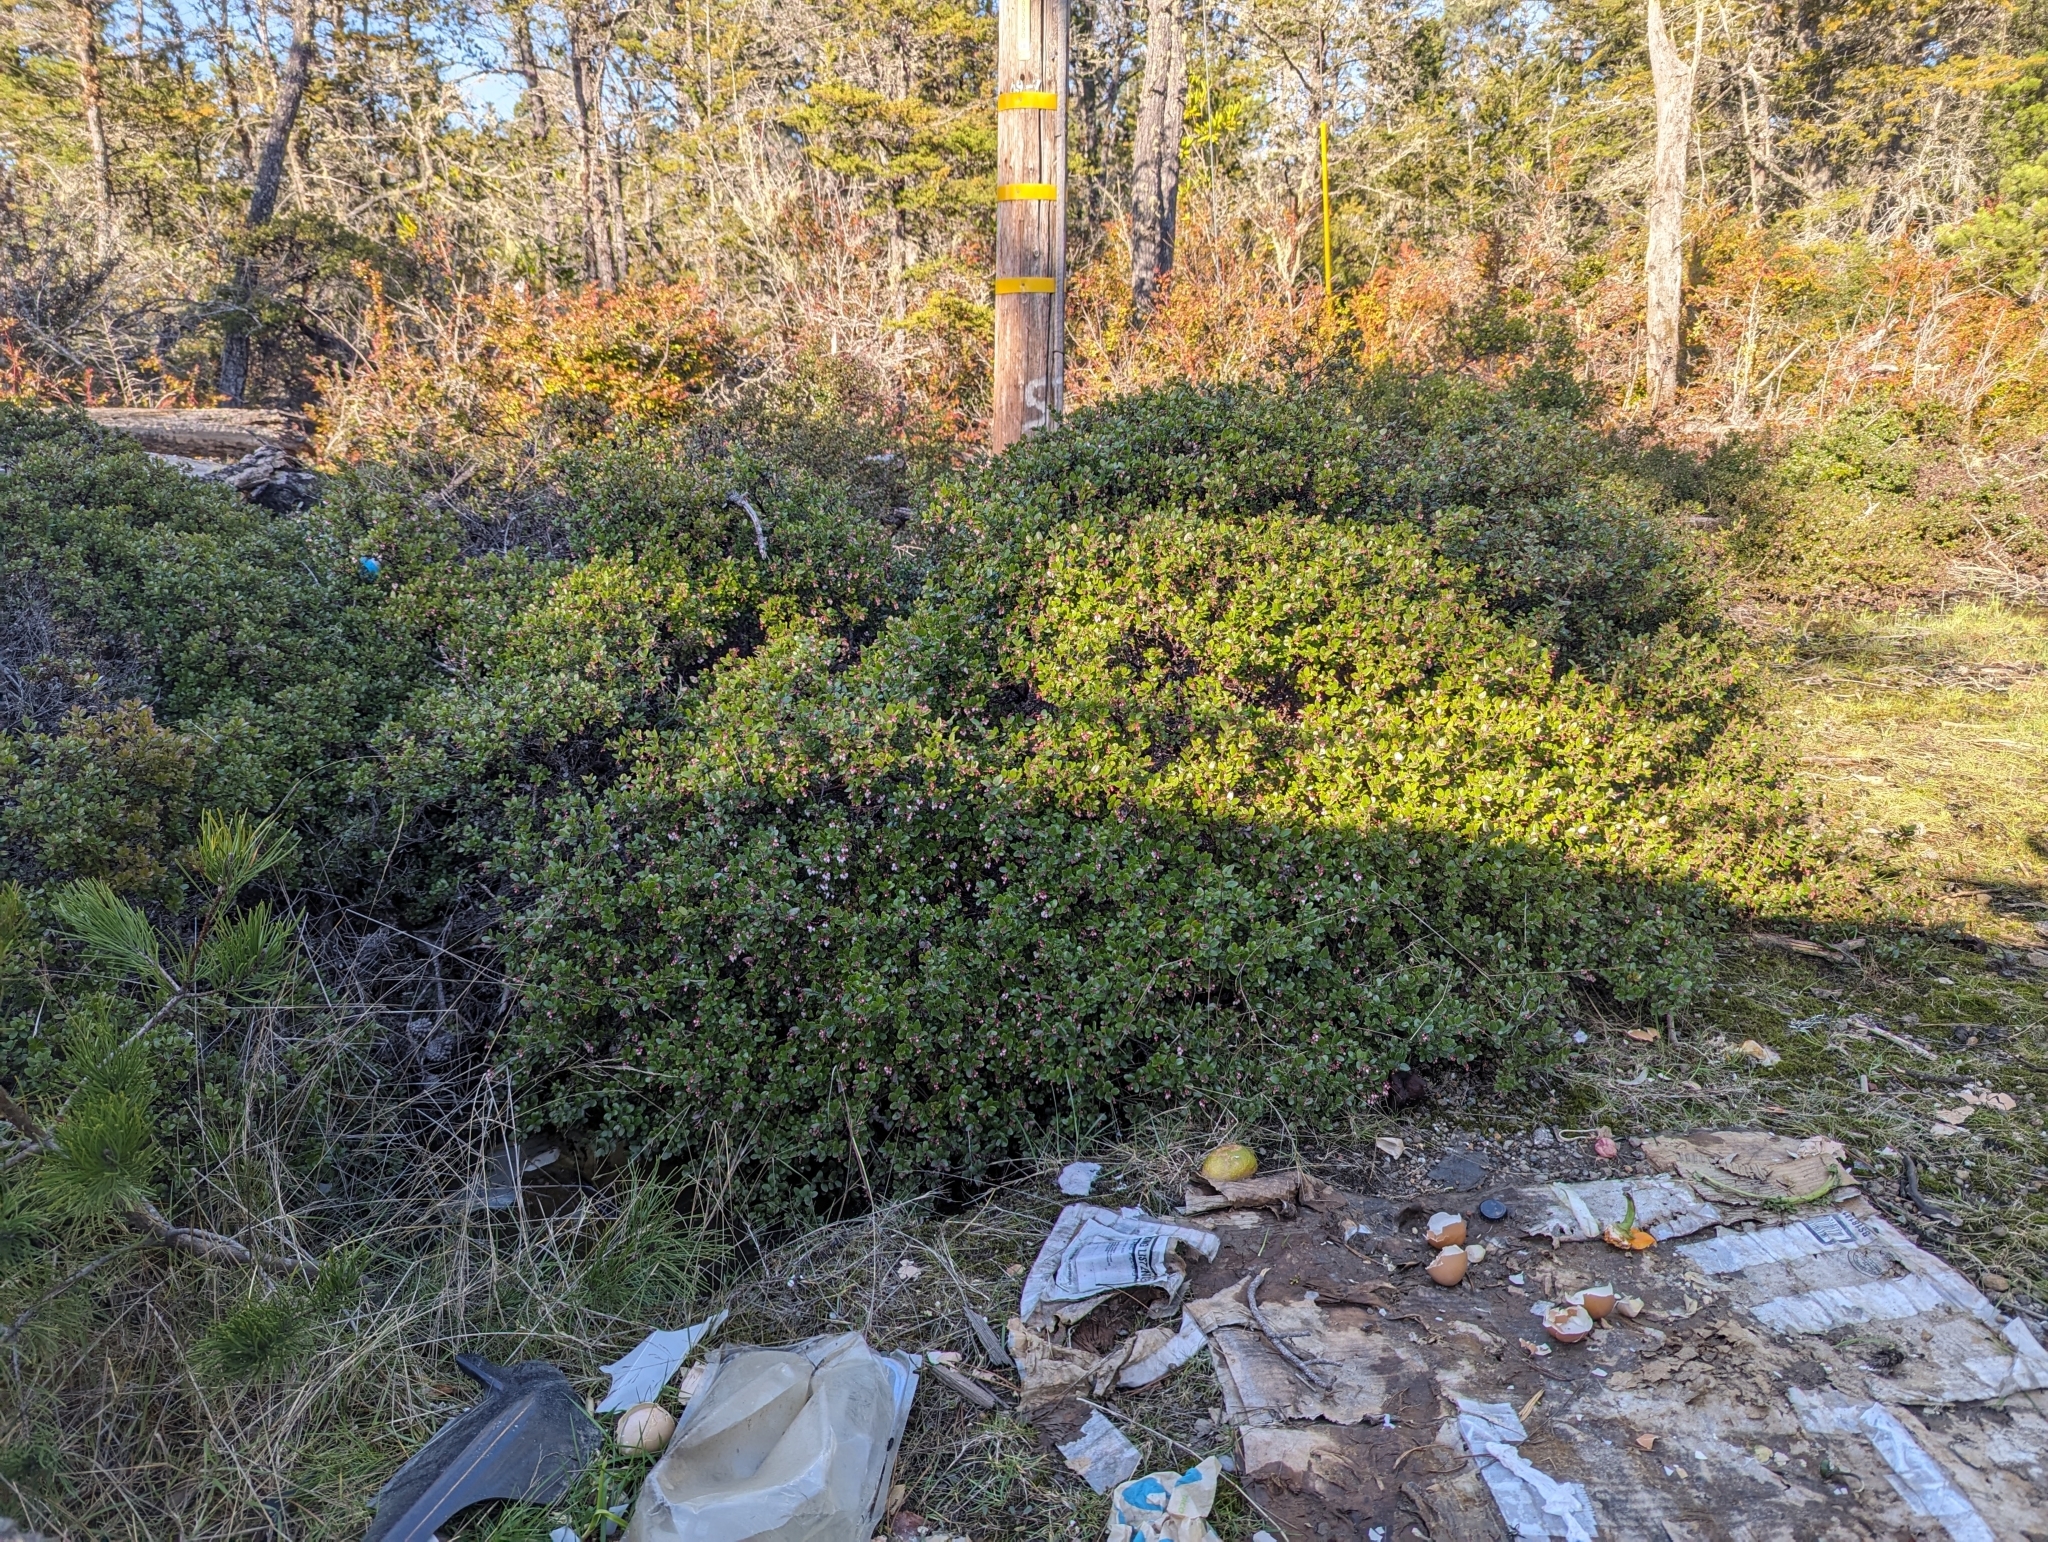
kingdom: Plantae
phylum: Tracheophyta
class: Magnoliopsida
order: Ericales
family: Ericaceae
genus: Arctostaphylos
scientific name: Arctostaphylos nummularia
